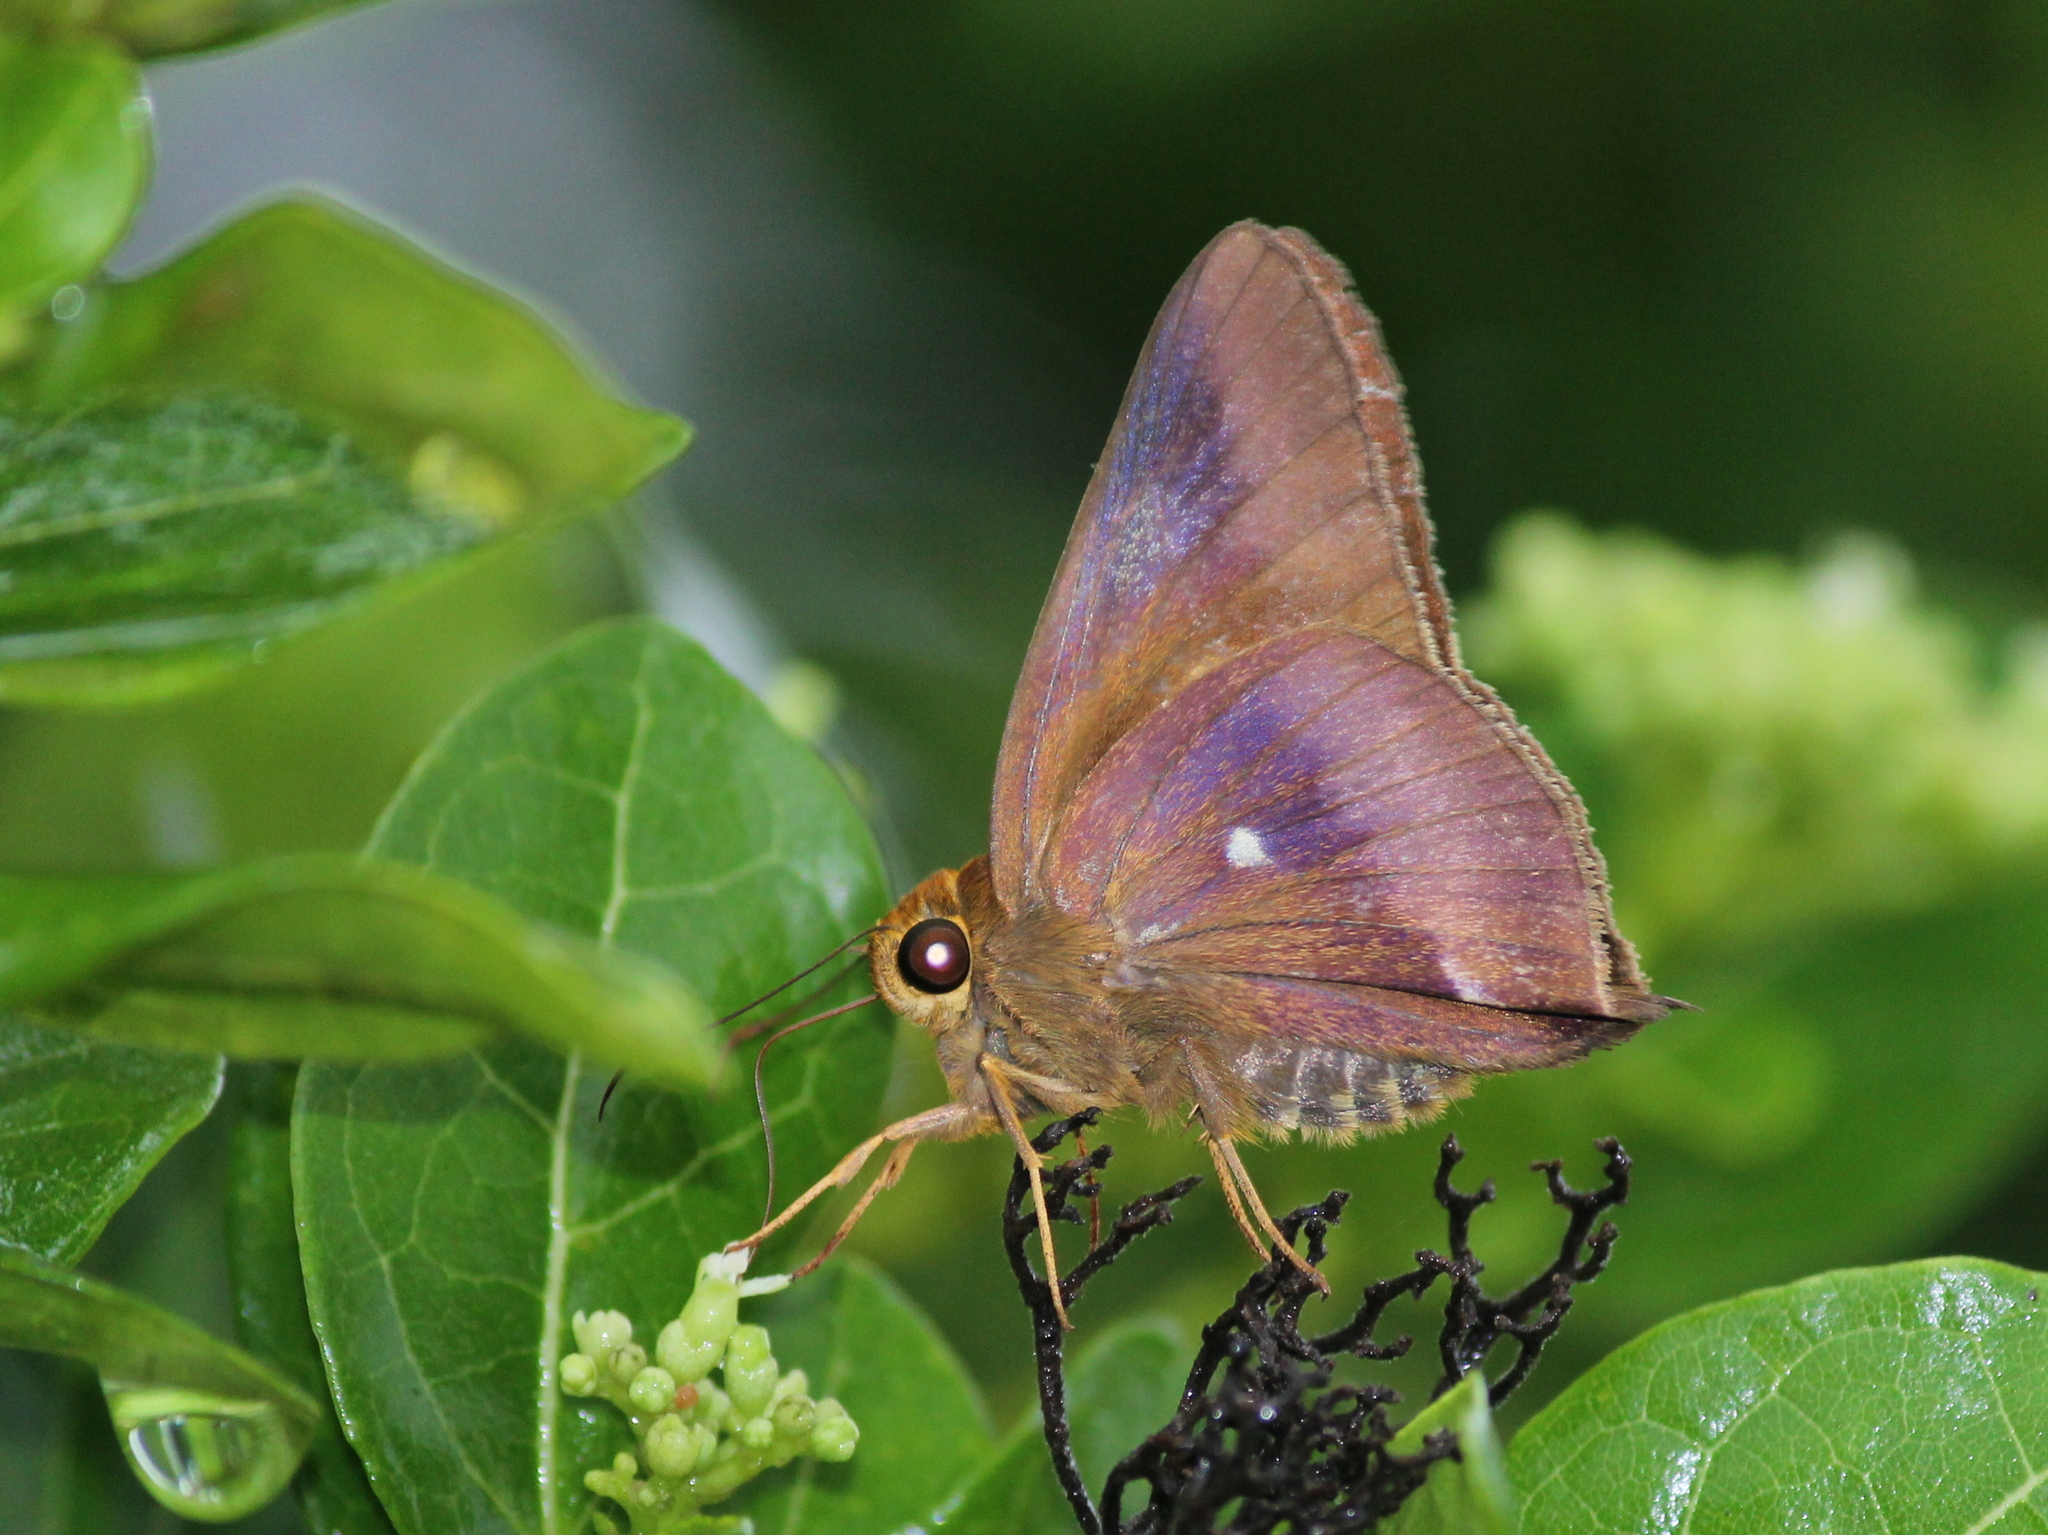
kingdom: Animalia
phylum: Arthropoda
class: Insecta
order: Lepidoptera
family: Hesperiidae
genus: Hasora
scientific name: Hasora badra
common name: Common awl
